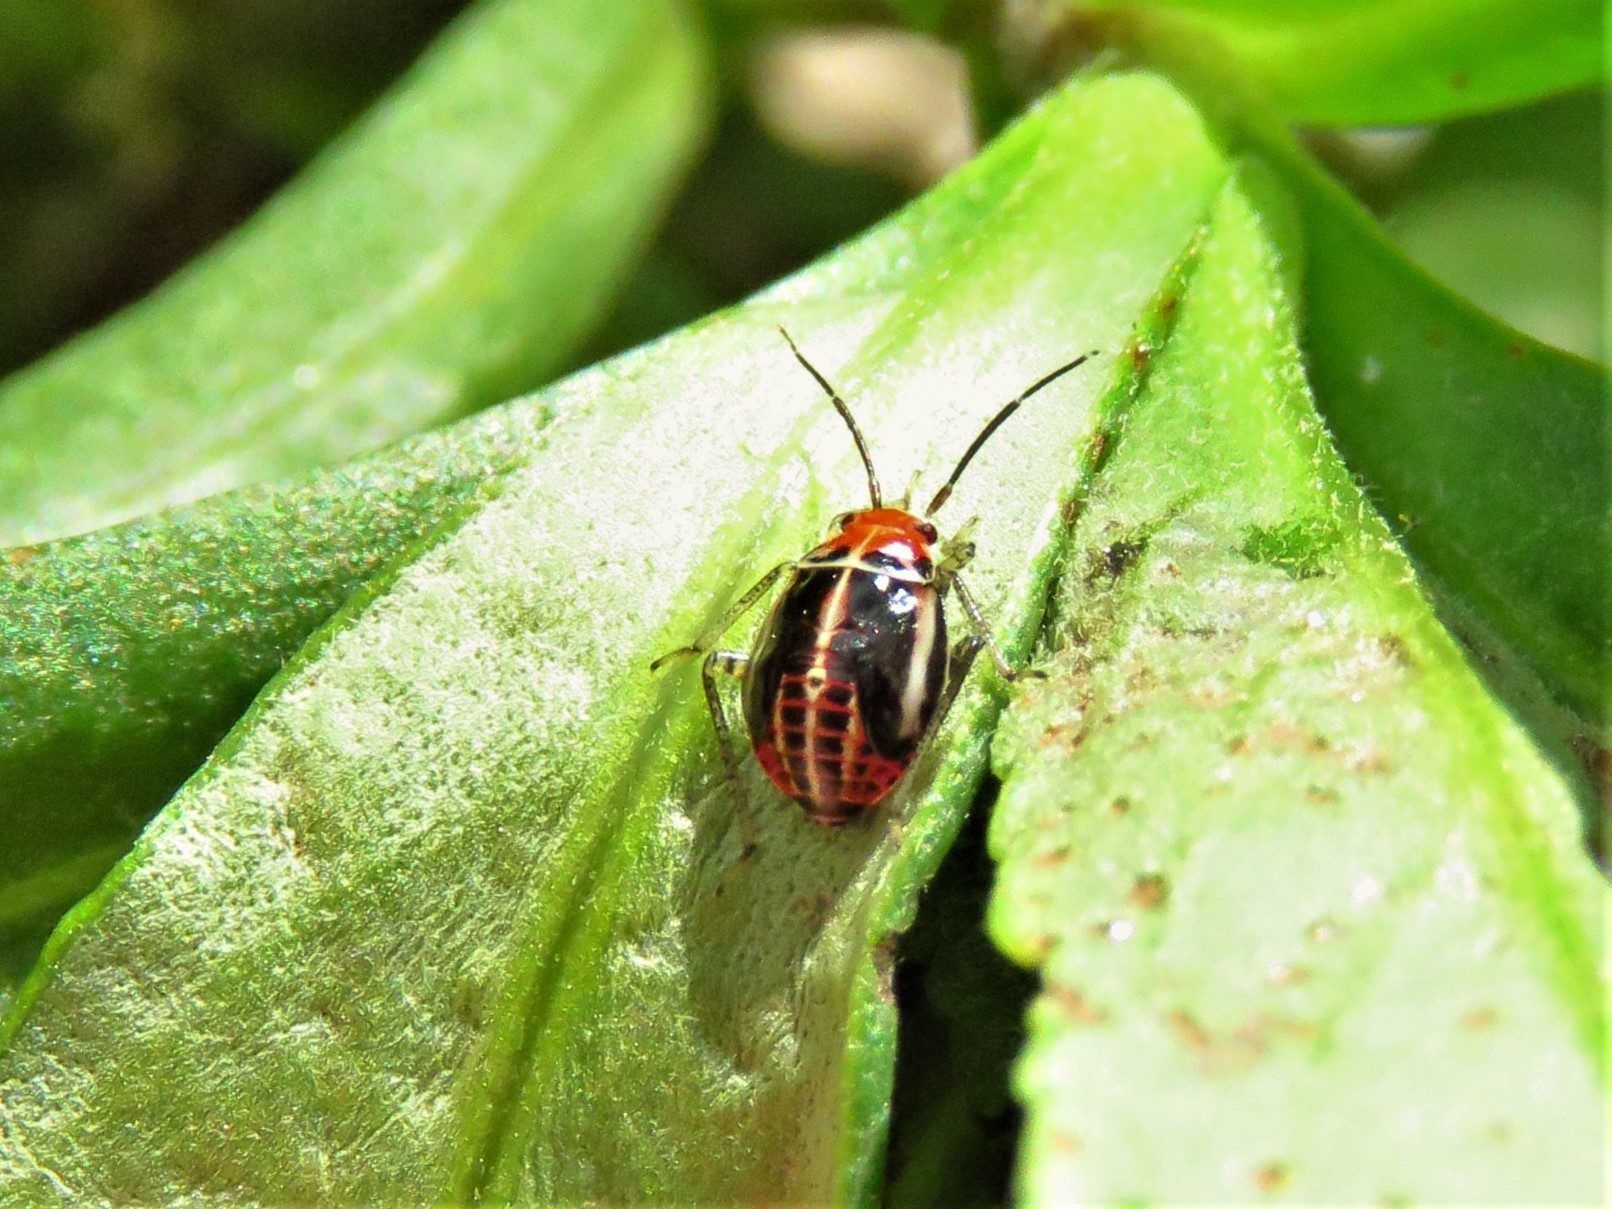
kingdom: Animalia
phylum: Arthropoda
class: Insecta
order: Hemiptera
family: Miridae
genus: Poecilocapsus
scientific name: Poecilocapsus lineatus
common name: Four-lined plant bug
